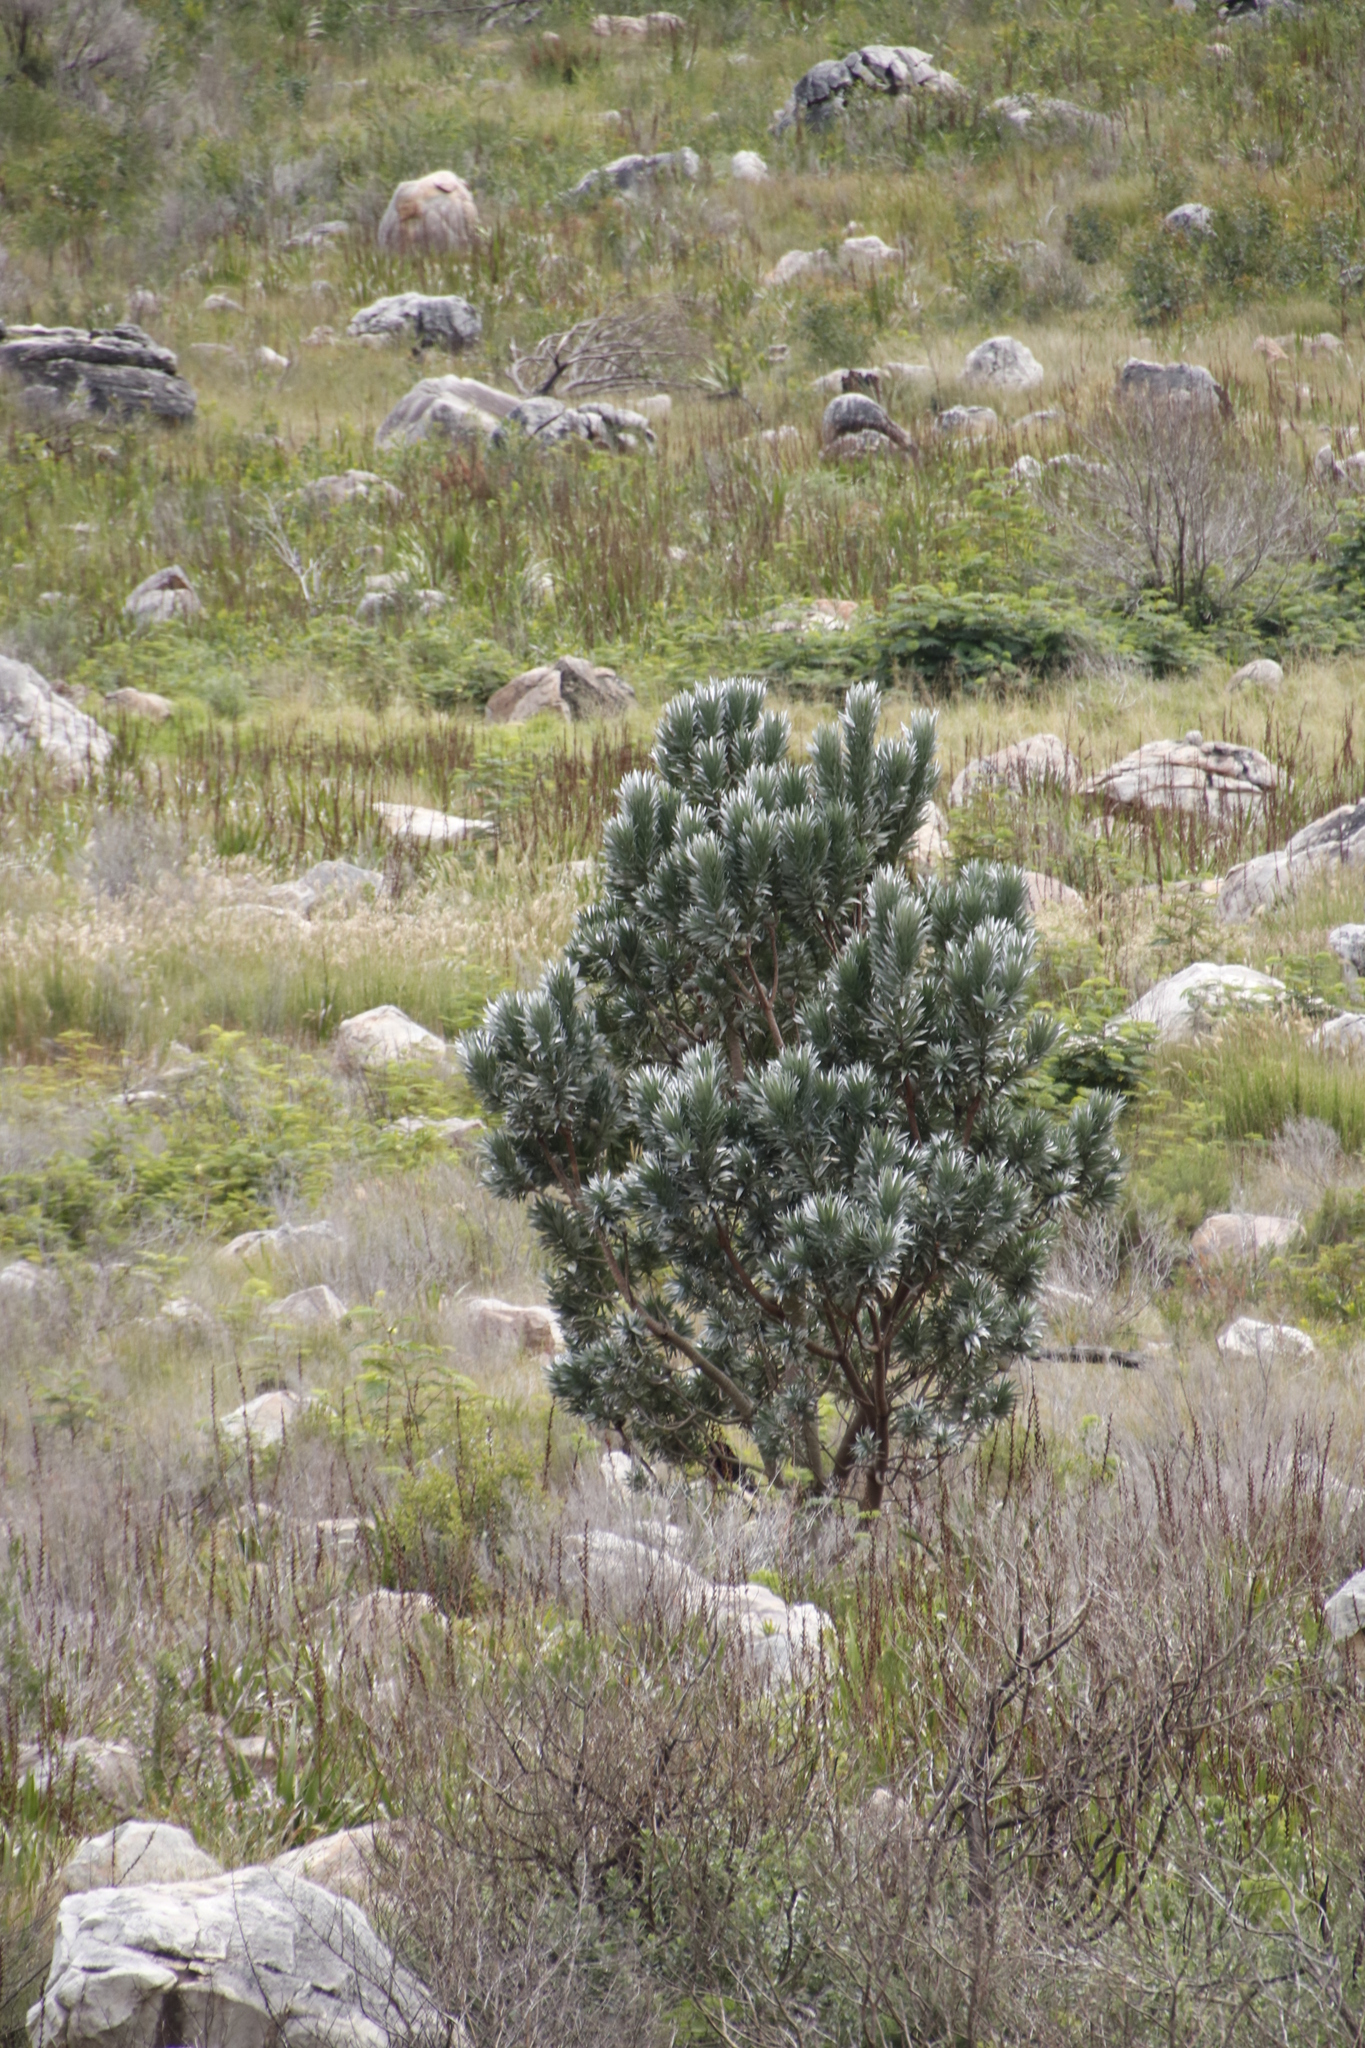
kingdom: Plantae
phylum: Tracheophyta
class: Magnoliopsida
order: Proteales
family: Proteaceae
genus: Leucadendron
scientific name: Leucadendron argenteum
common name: Cape silver tree
